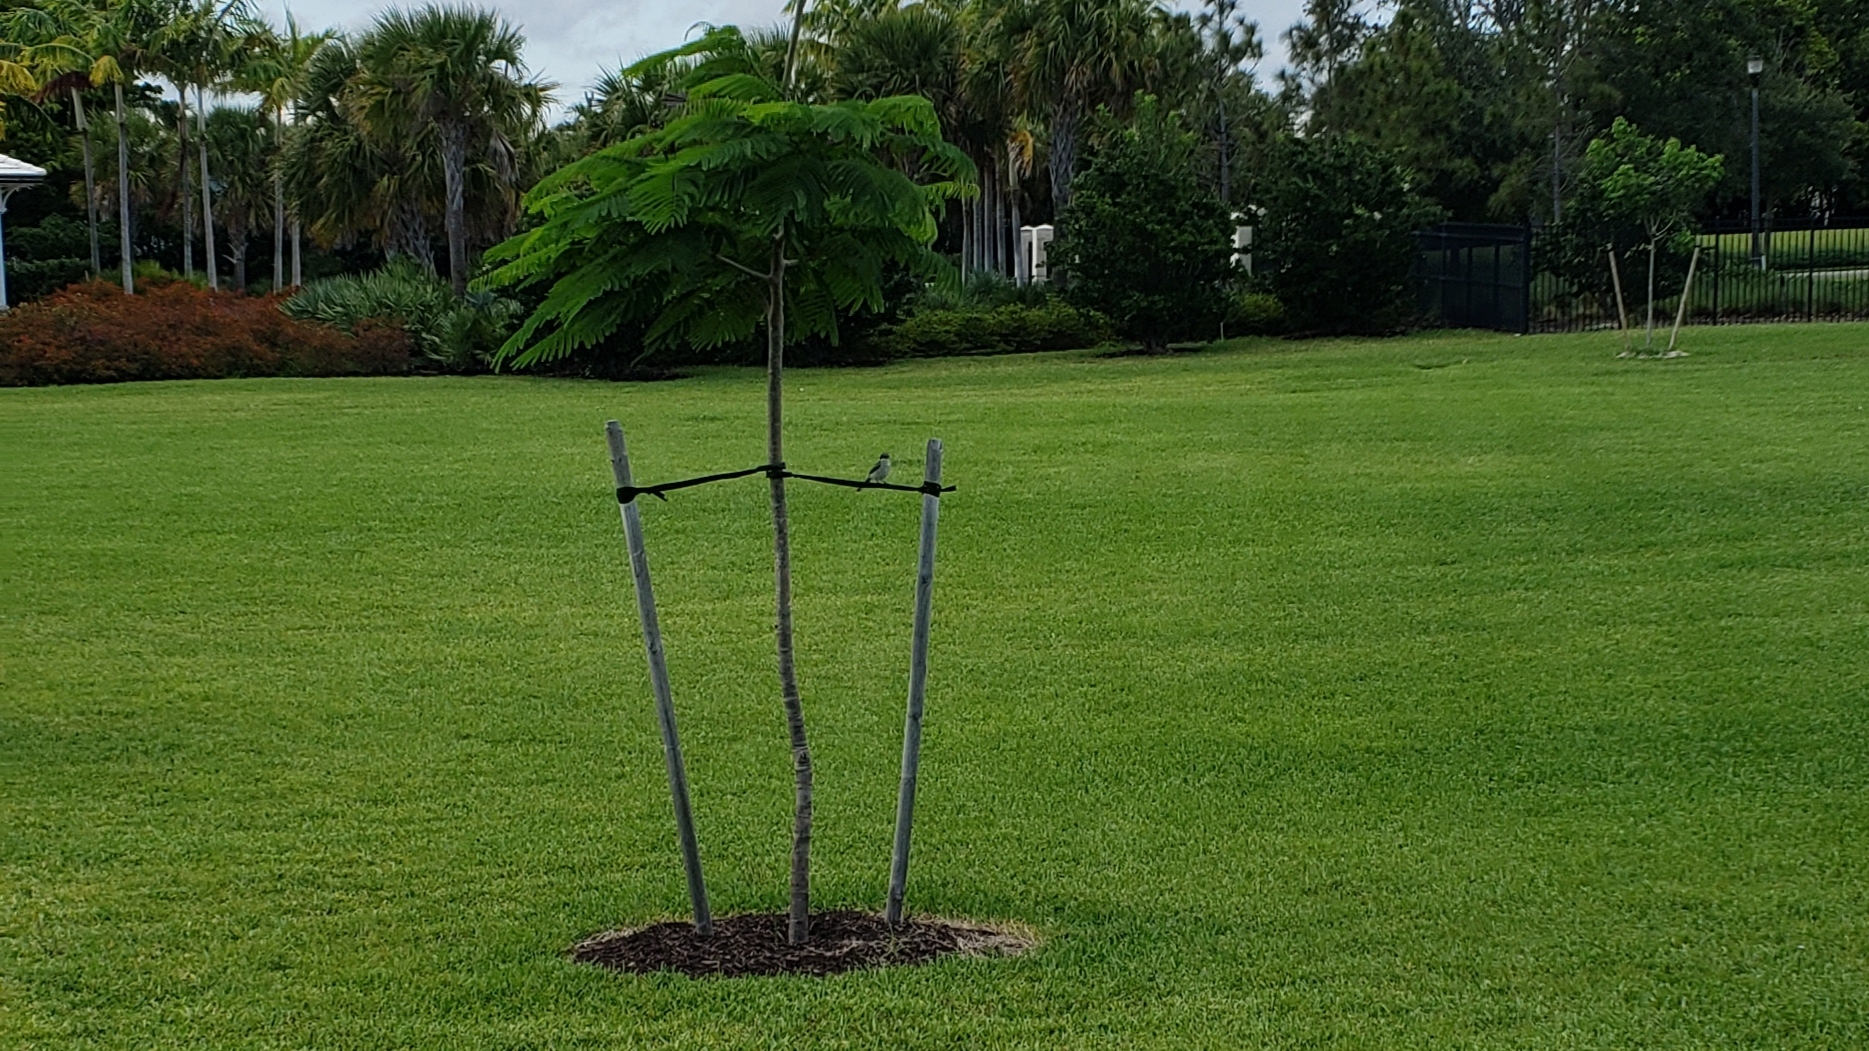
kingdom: Animalia
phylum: Chordata
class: Aves
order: Passeriformes
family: Laniidae
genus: Lanius
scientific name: Lanius ludovicianus
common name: Loggerhead shrike
